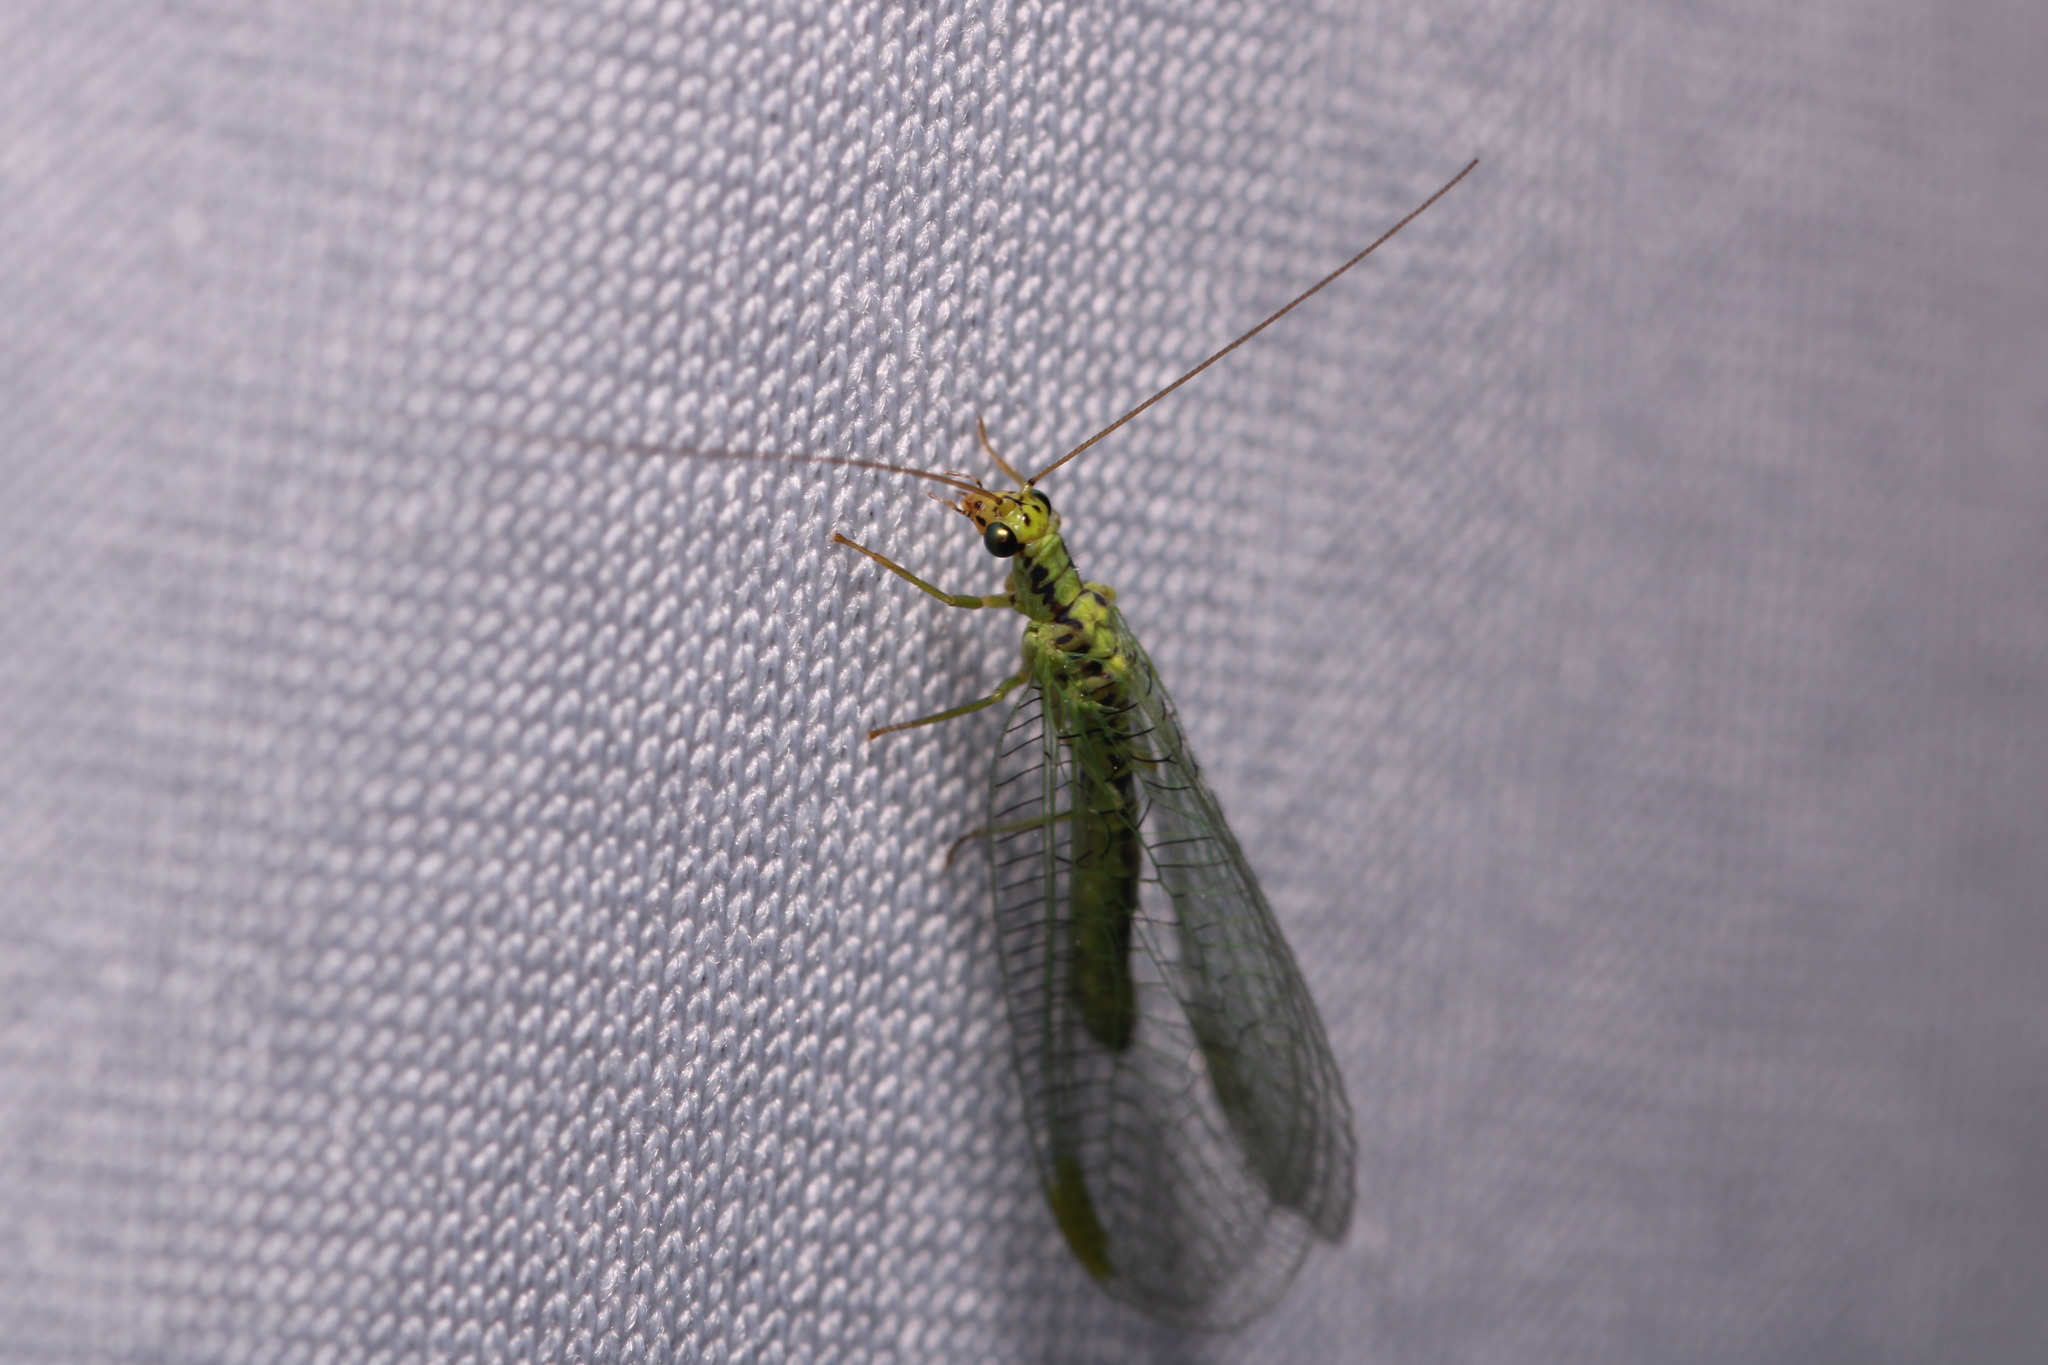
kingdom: Animalia
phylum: Arthropoda
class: Insecta
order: Neuroptera
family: Chrysopidae
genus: Chrysopa
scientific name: Chrysopa walkeri
